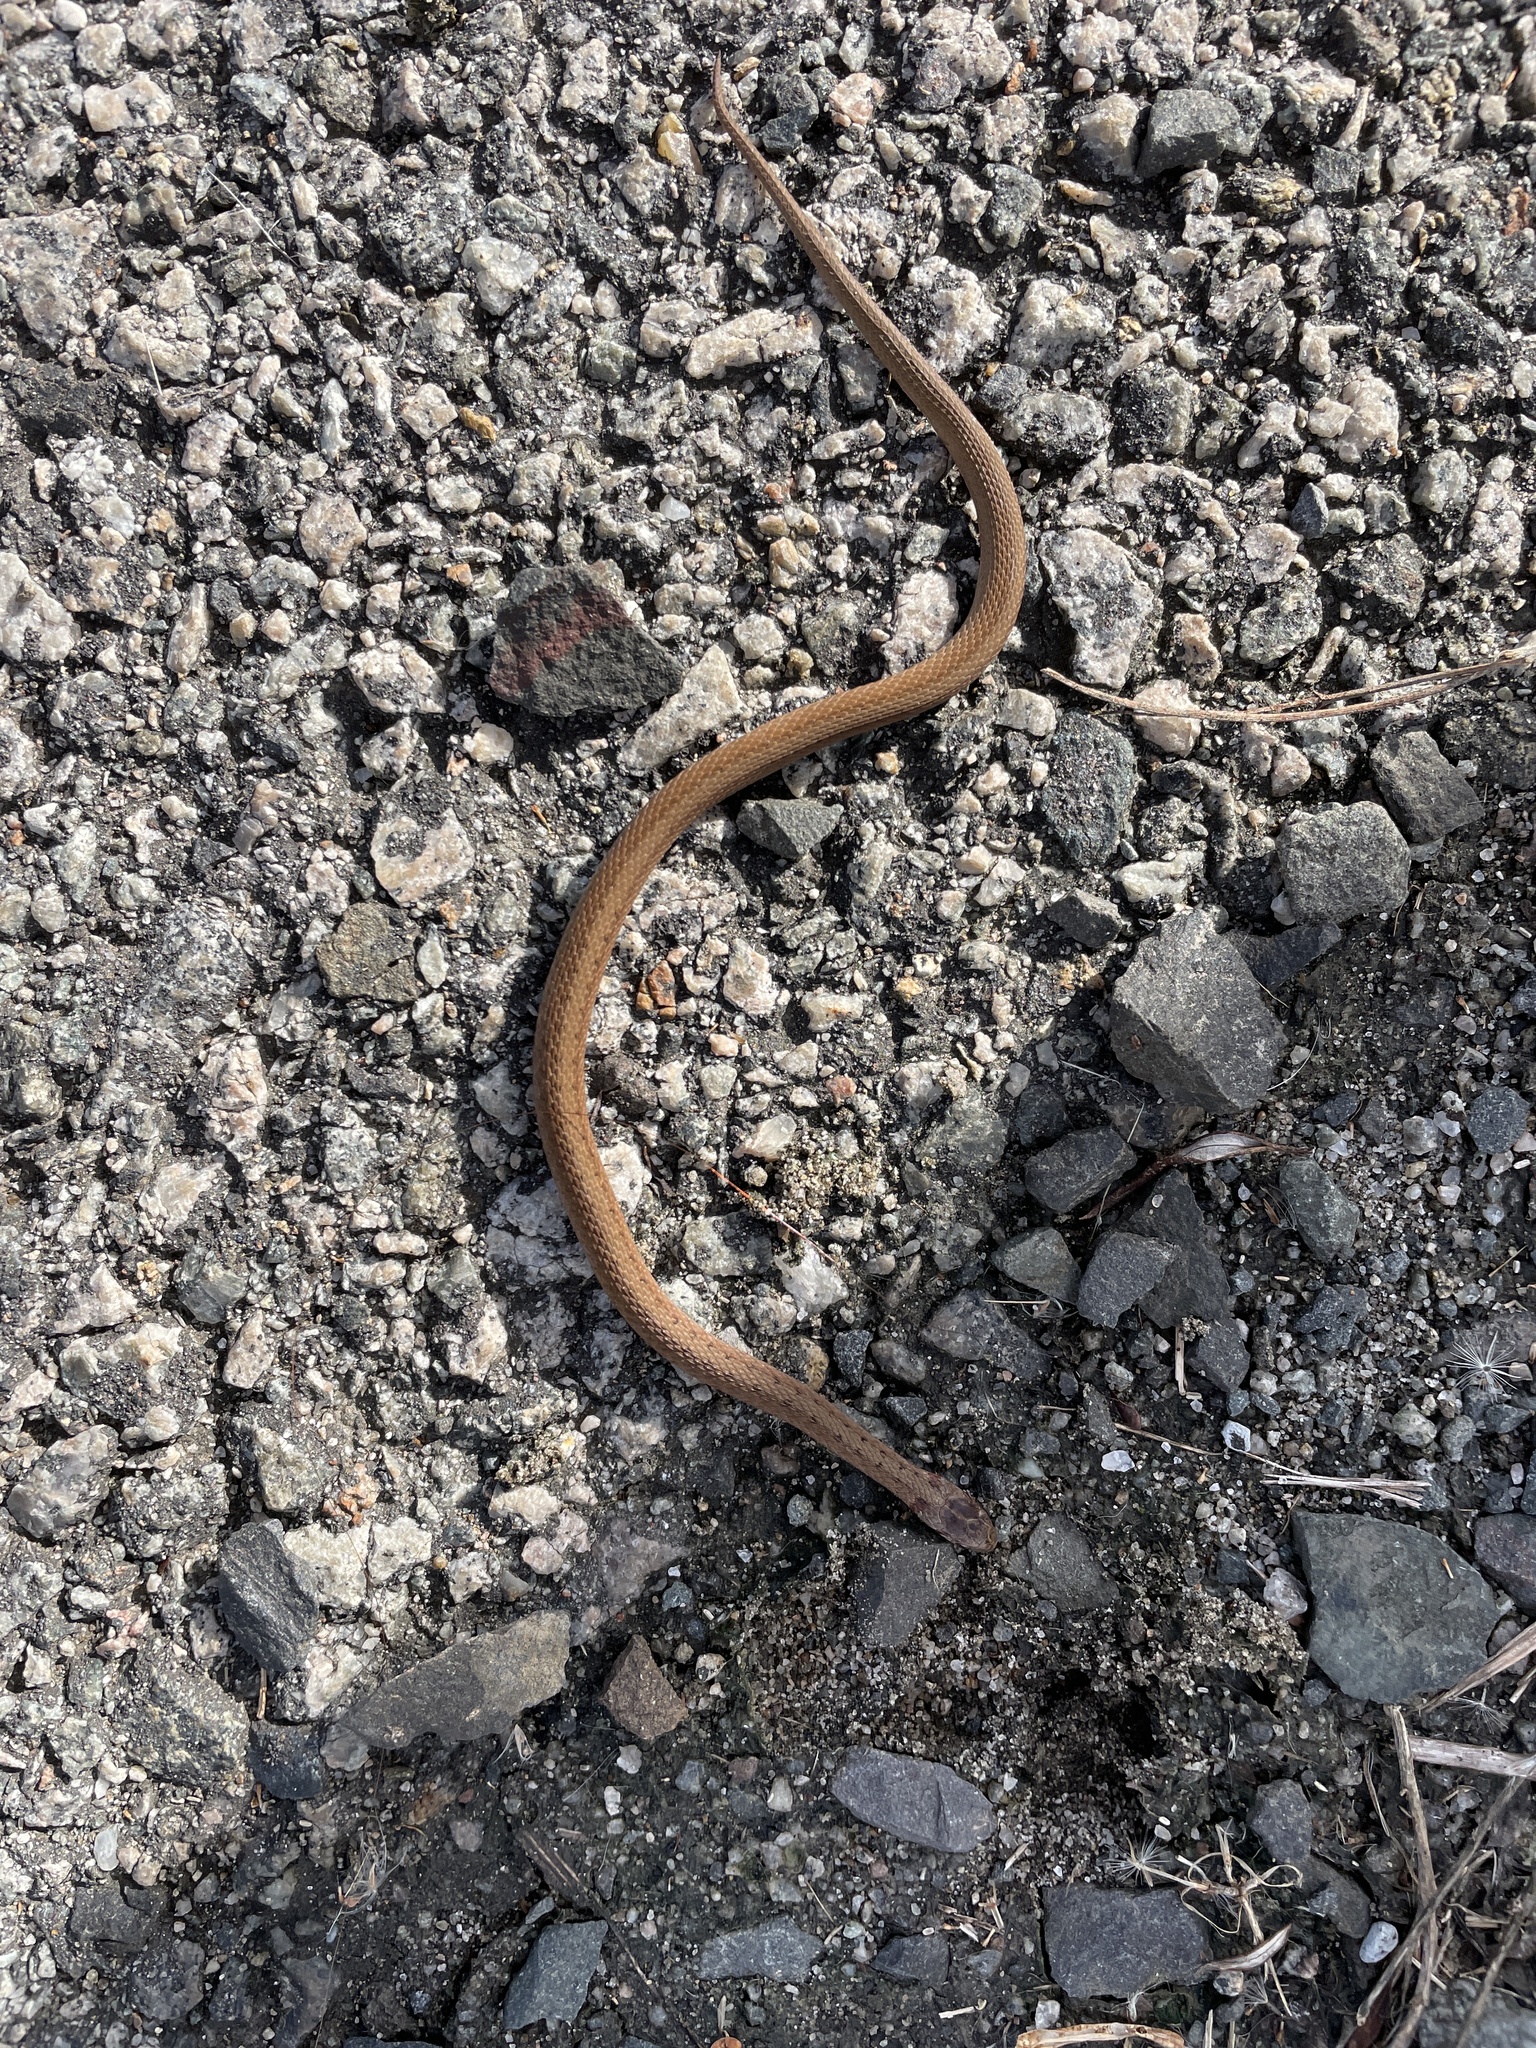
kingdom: Animalia
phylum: Chordata
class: Squamata
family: Colubridae
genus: Storeria
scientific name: Storeria dekayi
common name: (dekay’s) brown snake
